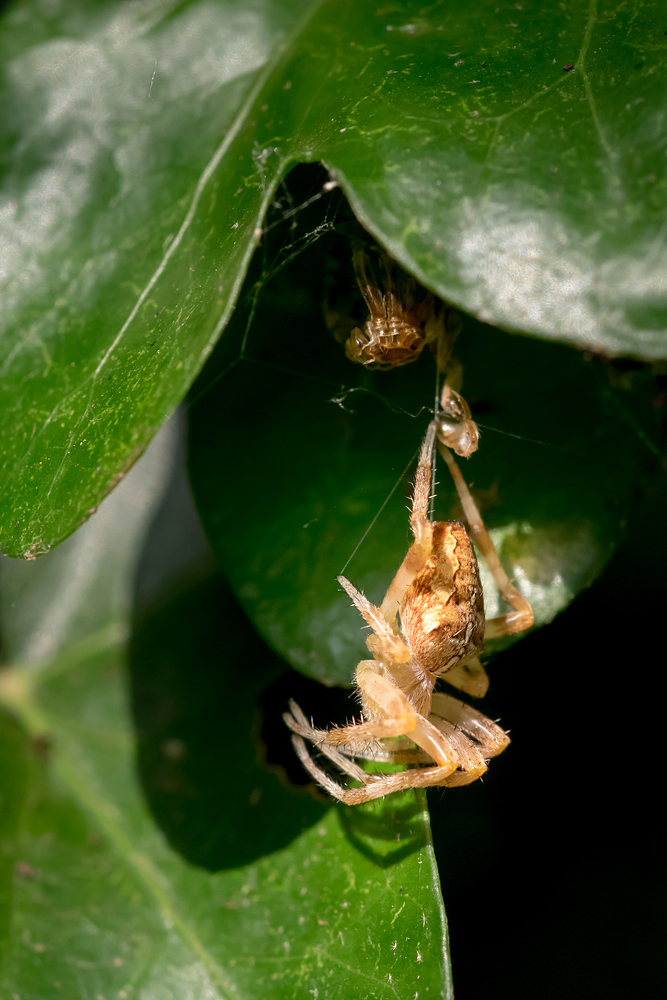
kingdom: Animalia
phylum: Arthropoda
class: Arachnida
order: Araneae
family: Araneidae
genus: Araneus
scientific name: Araneus diadematus
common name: Cross orbweaver
